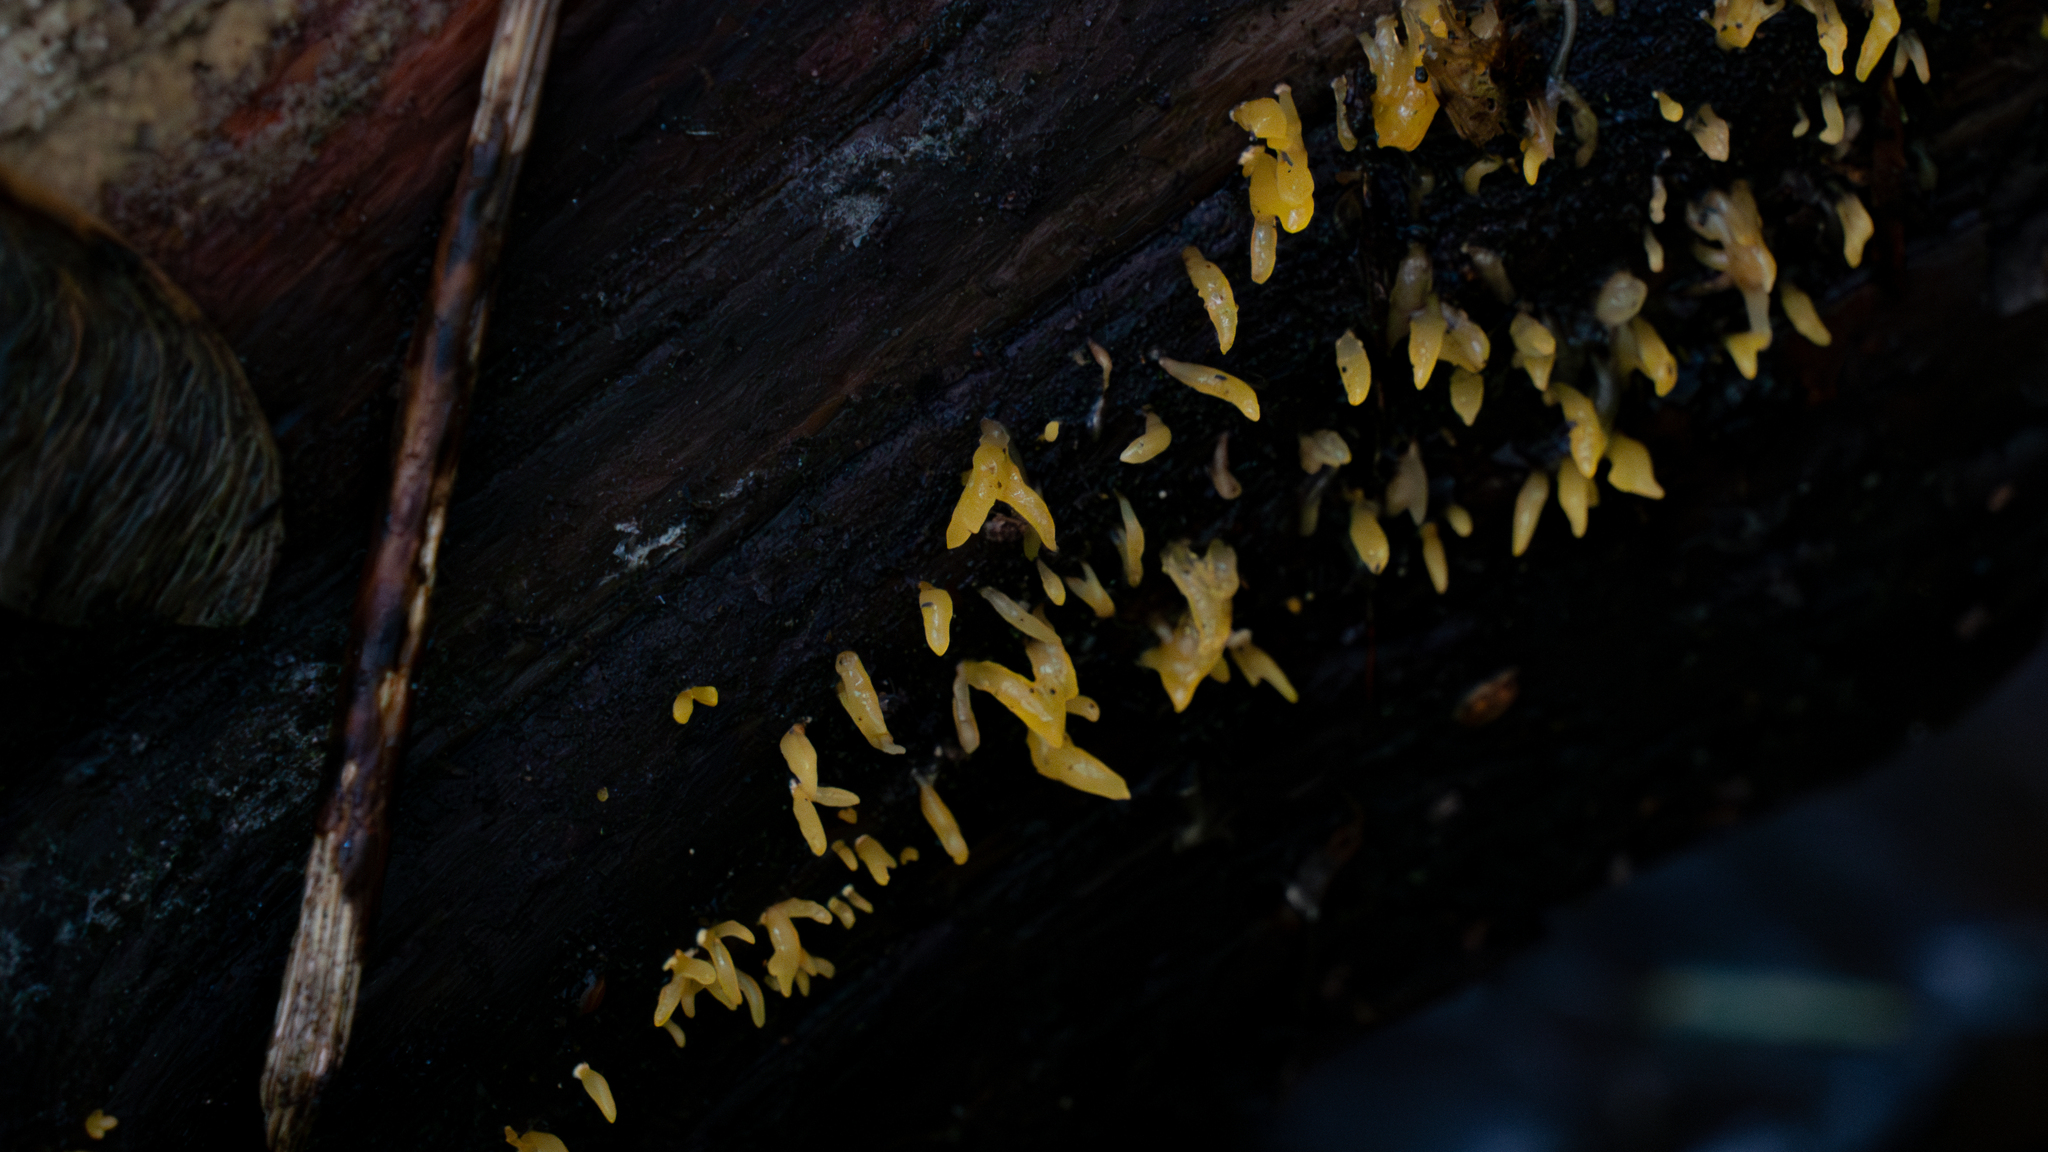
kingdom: Fungi
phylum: Basidiomycota
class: Dacrymycetes
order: Dacrymycetales
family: Dacrymycetaceae
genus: Calocera
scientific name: Calocera cornea
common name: Small stagshorn
